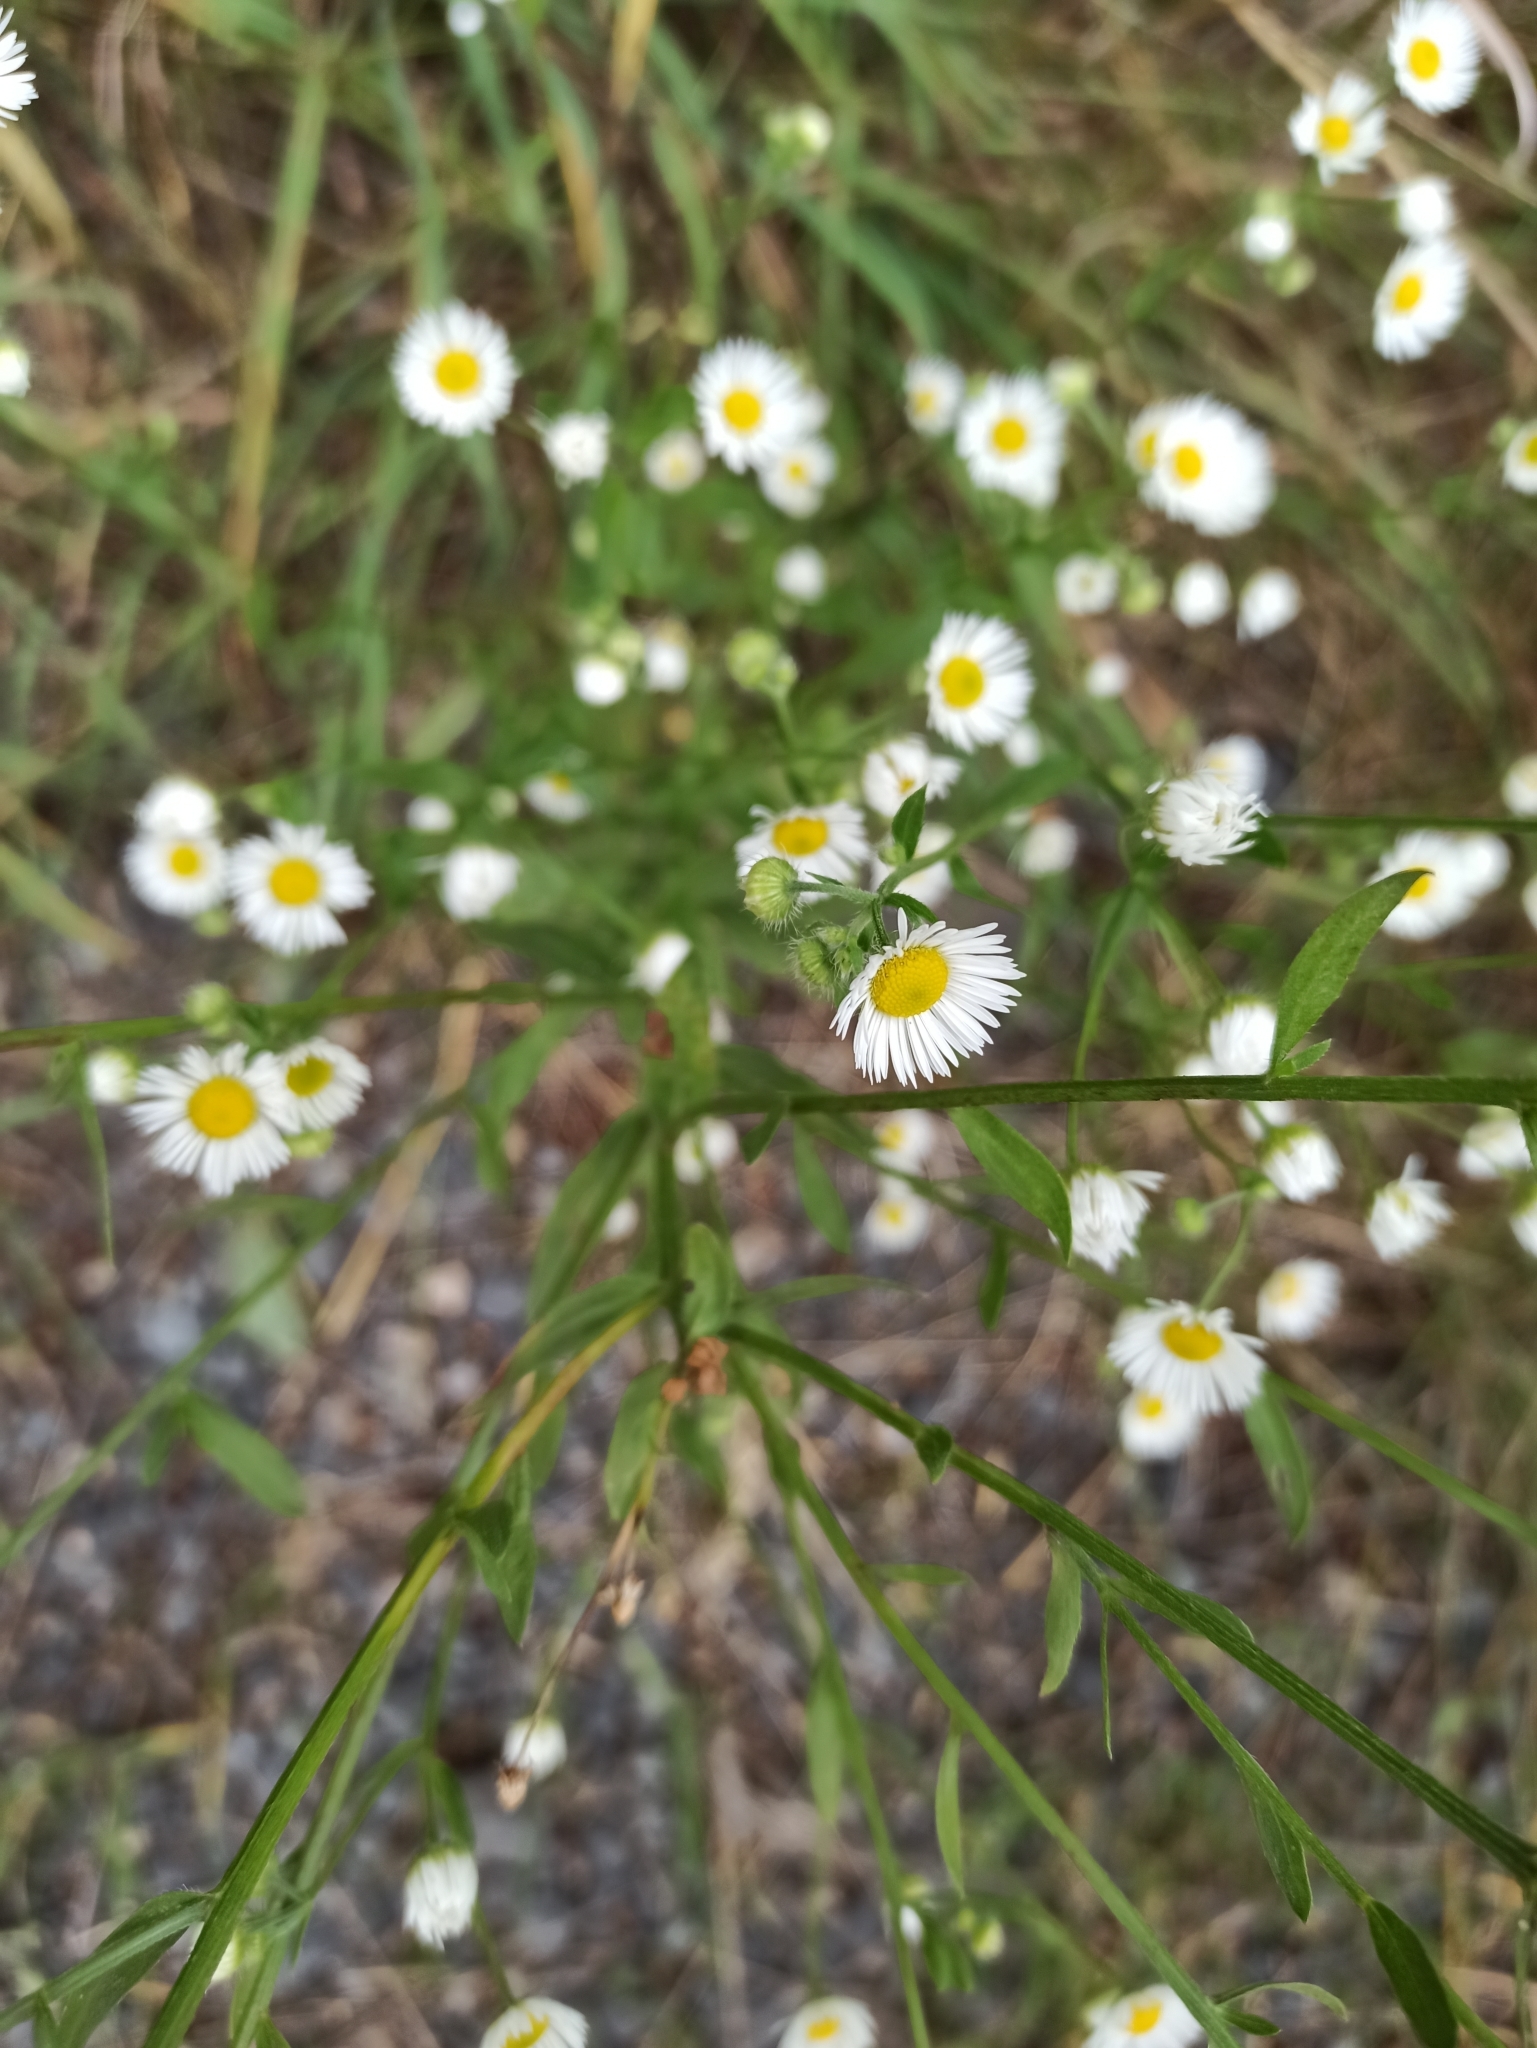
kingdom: Plantae
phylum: Tracheophyta
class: Magnoliopsida
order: Asterales
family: Asteraceae
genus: Erigeron
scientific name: Erigeron annuus
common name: Tall fleabane
